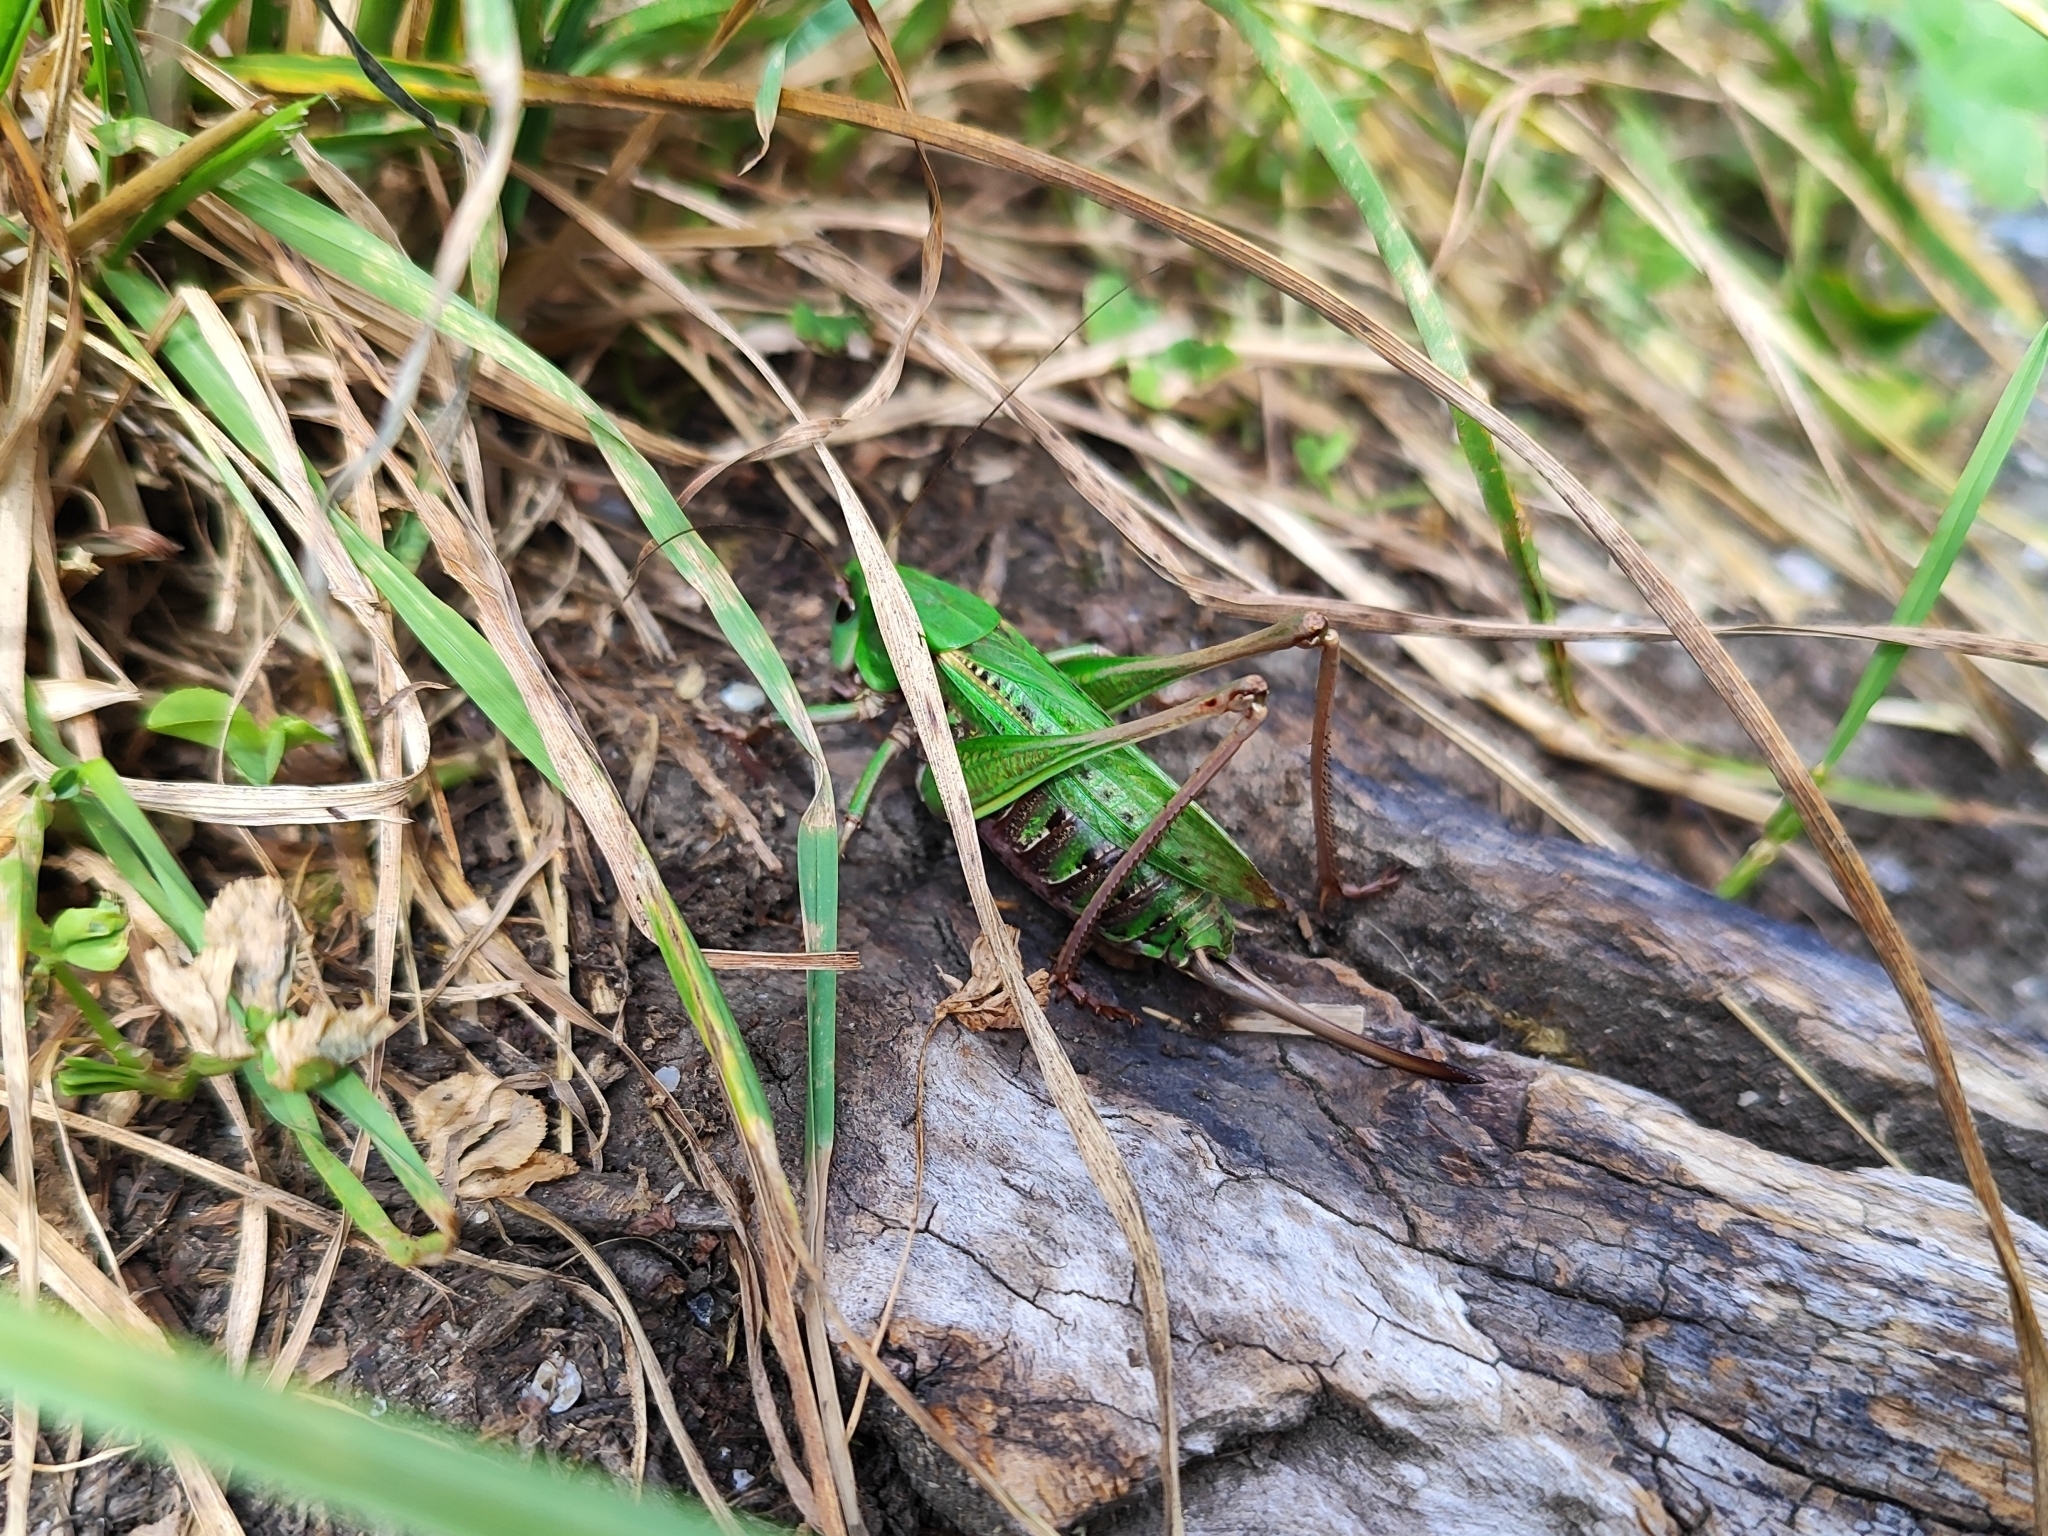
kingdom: Animalia
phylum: Arthropoda
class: Insecta
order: Orthoptera
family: Tettigoniidae
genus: Decticus
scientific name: Decticus verrucivorus
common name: Wart-biter
